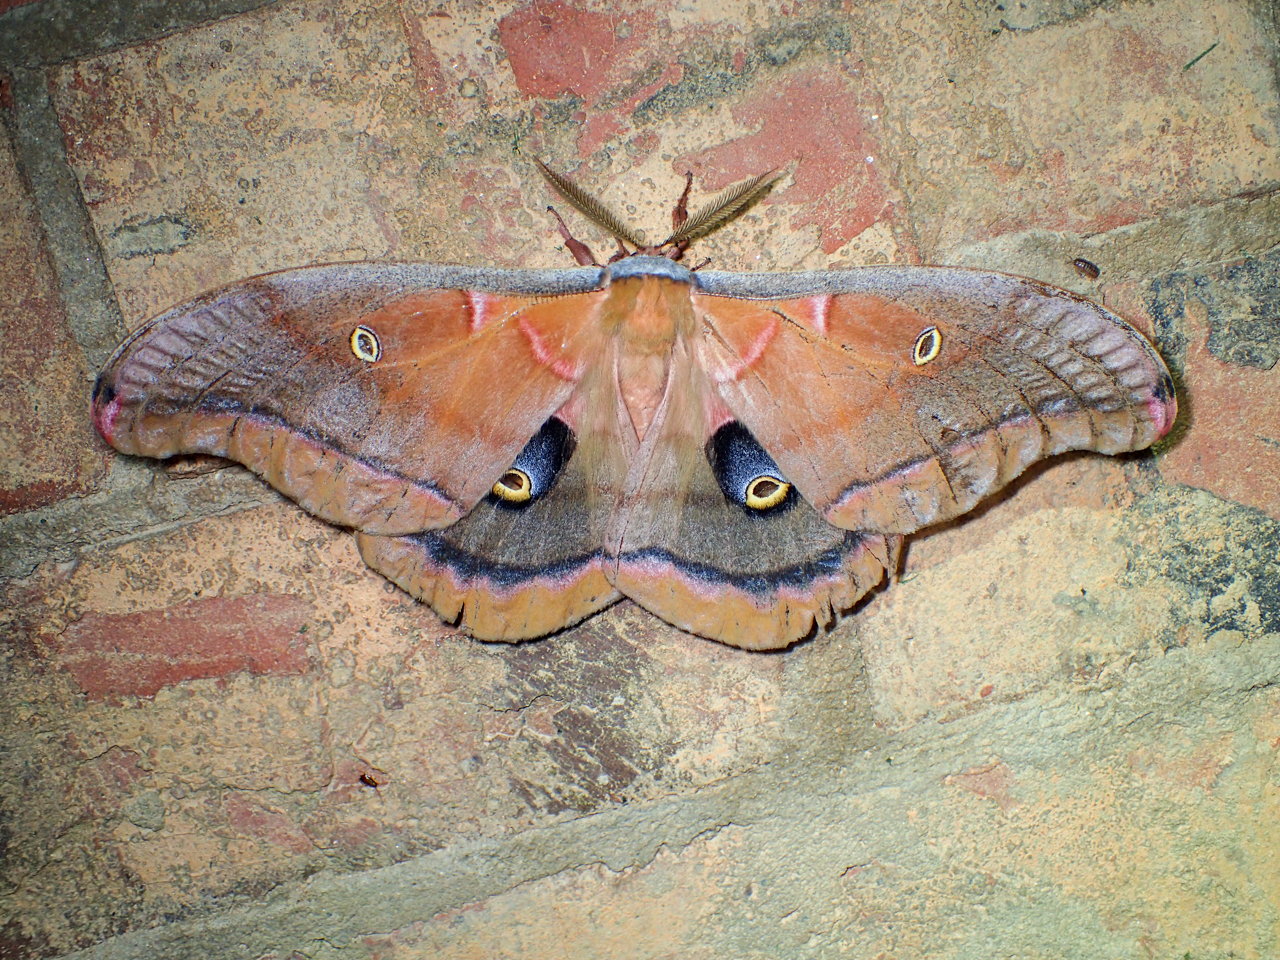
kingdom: Animalia
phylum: Arthropoda
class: Insecta
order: Lepidoptera
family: Saturniidae
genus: Antheraea
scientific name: Antheraea polyphemus
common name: Polyphemus moth
